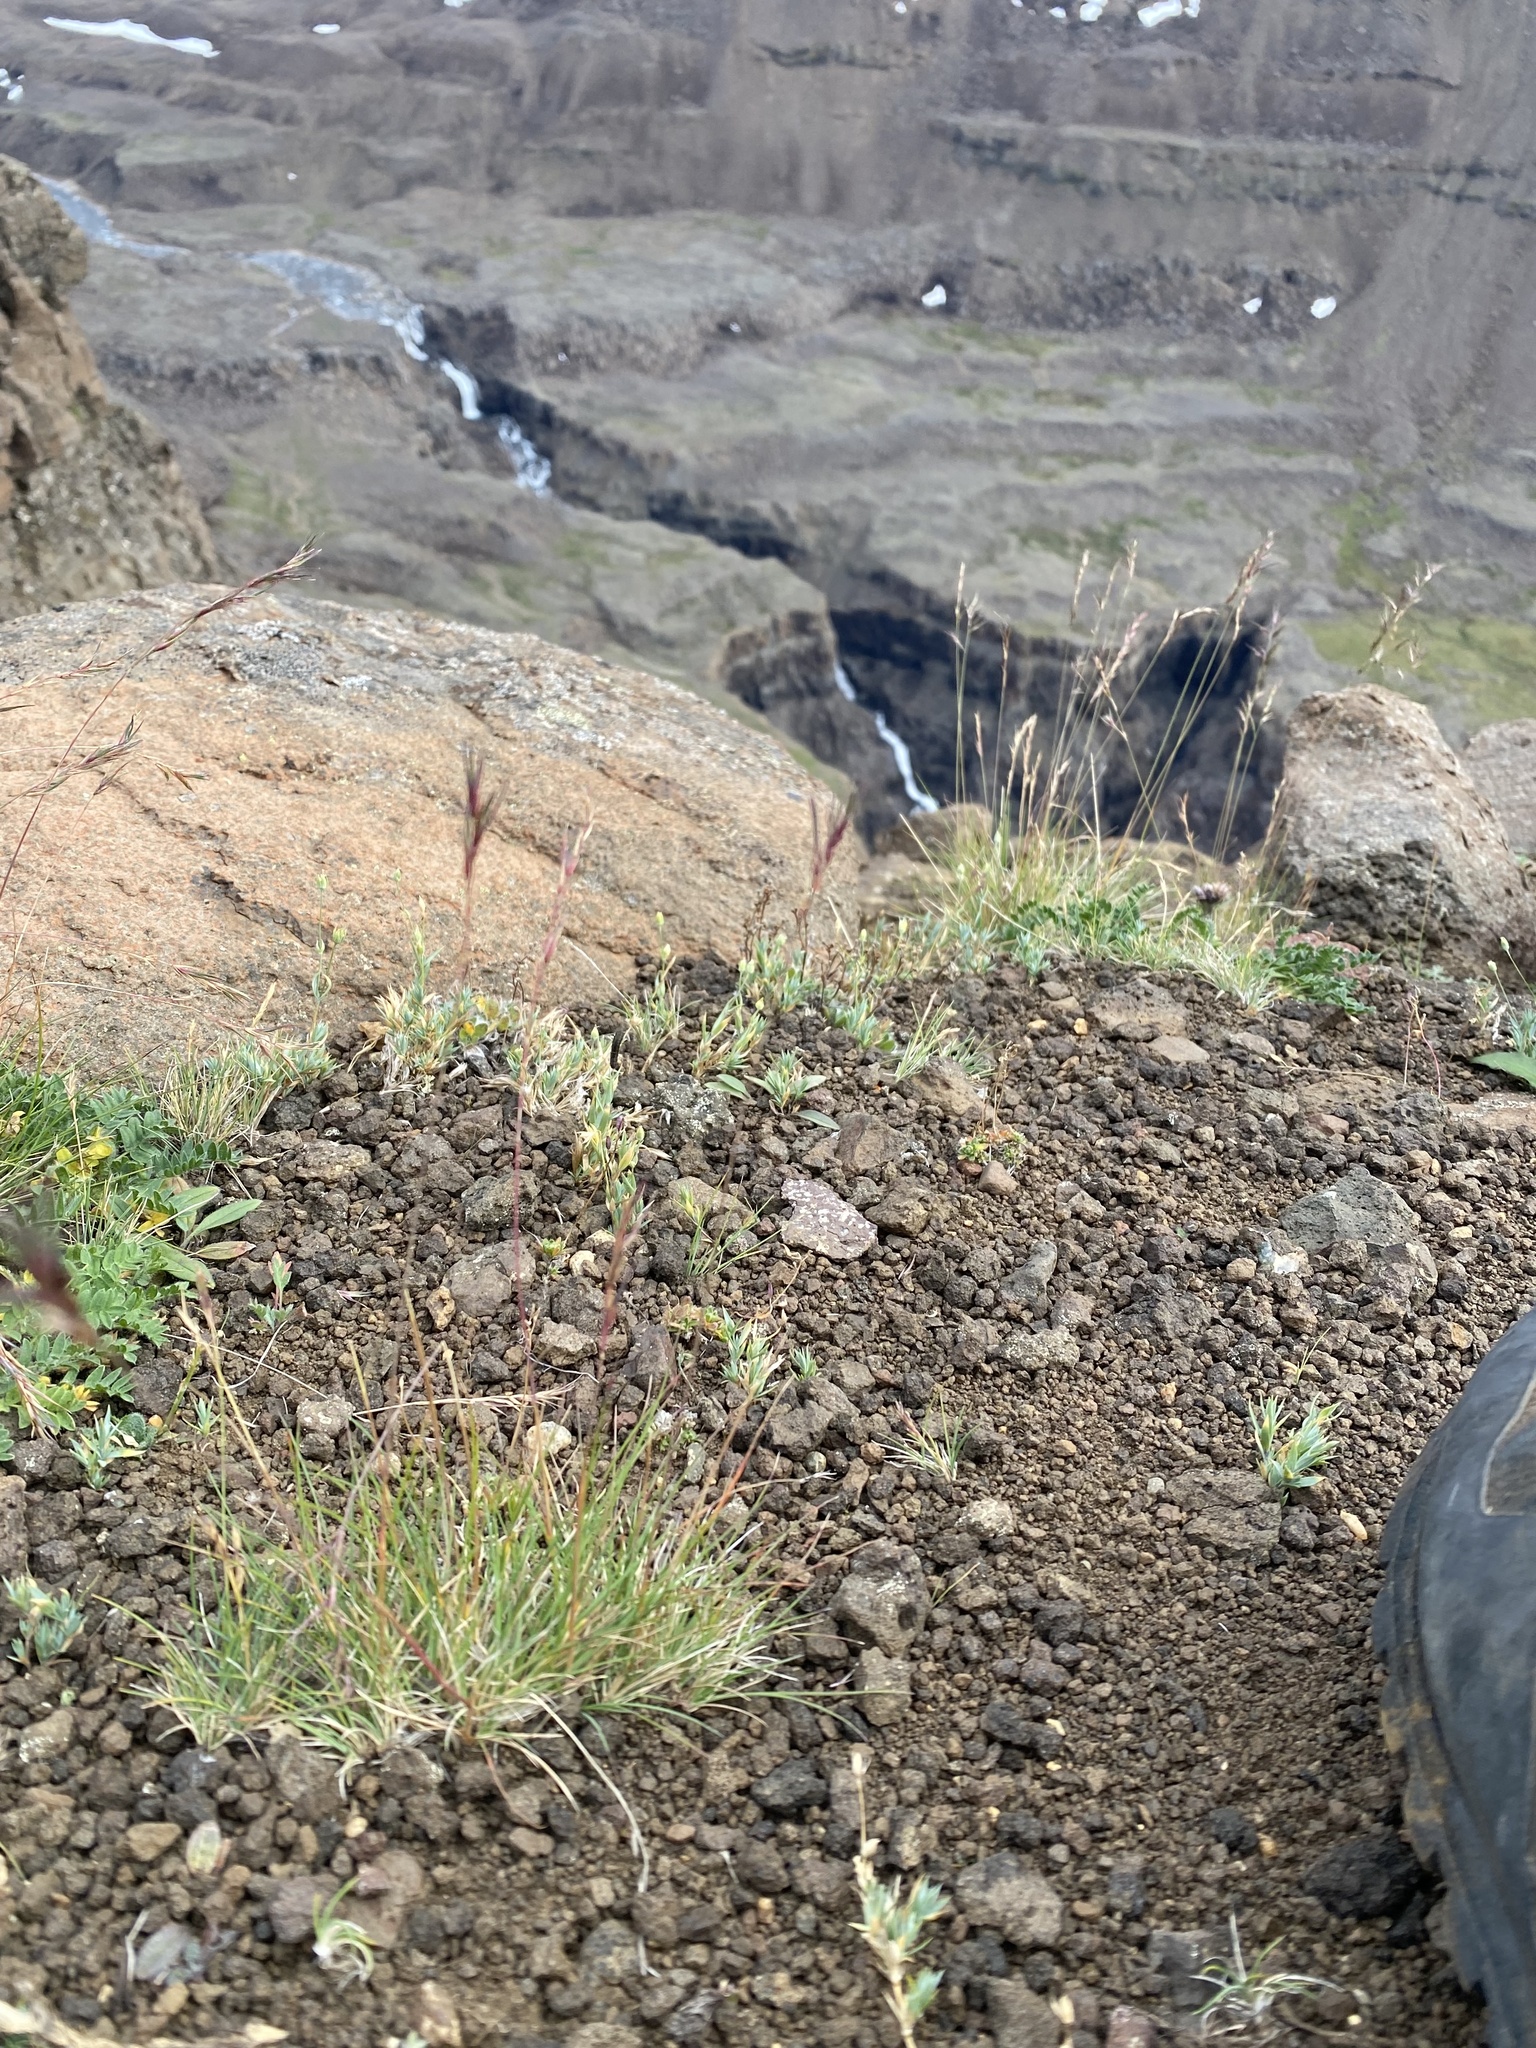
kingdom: Plantae
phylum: Tracheophyta
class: Liliopsida
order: Poales
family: Poaceae
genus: Festuca
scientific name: Festuca viviparoidea
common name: Northern fescue
